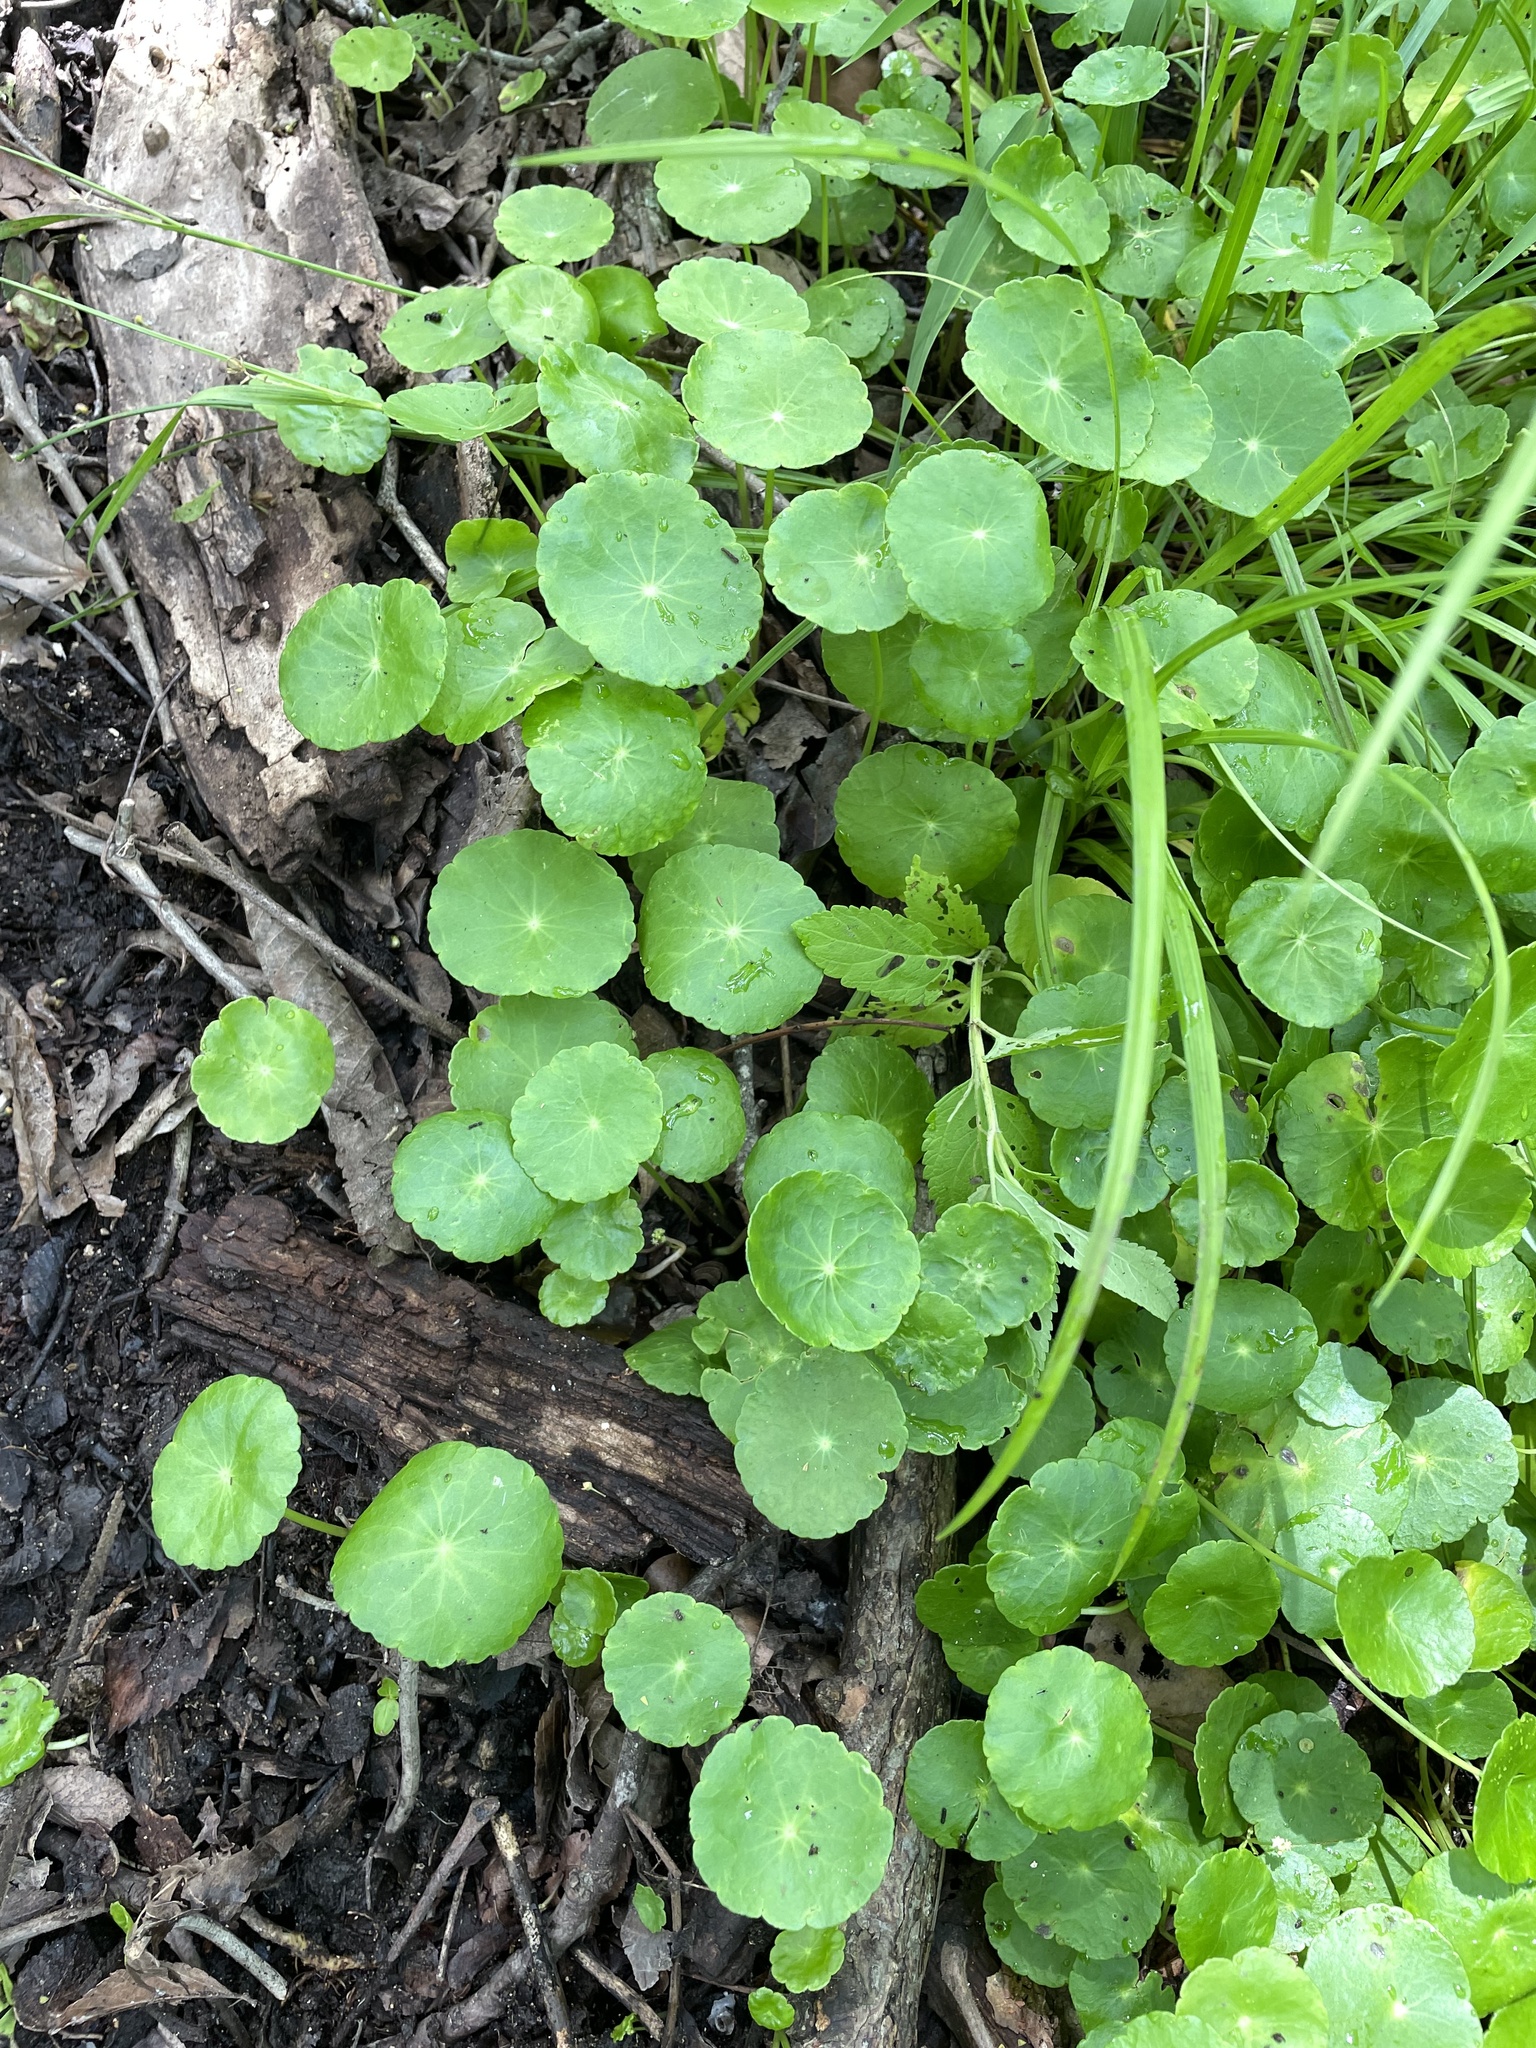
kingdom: Plantae
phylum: Tracheophyta
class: Magnoliopsida
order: Apiales
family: Araliaceae
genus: Hydrocotyle
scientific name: Hydrocotyle verticillata
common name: Whorled marshpennywort
